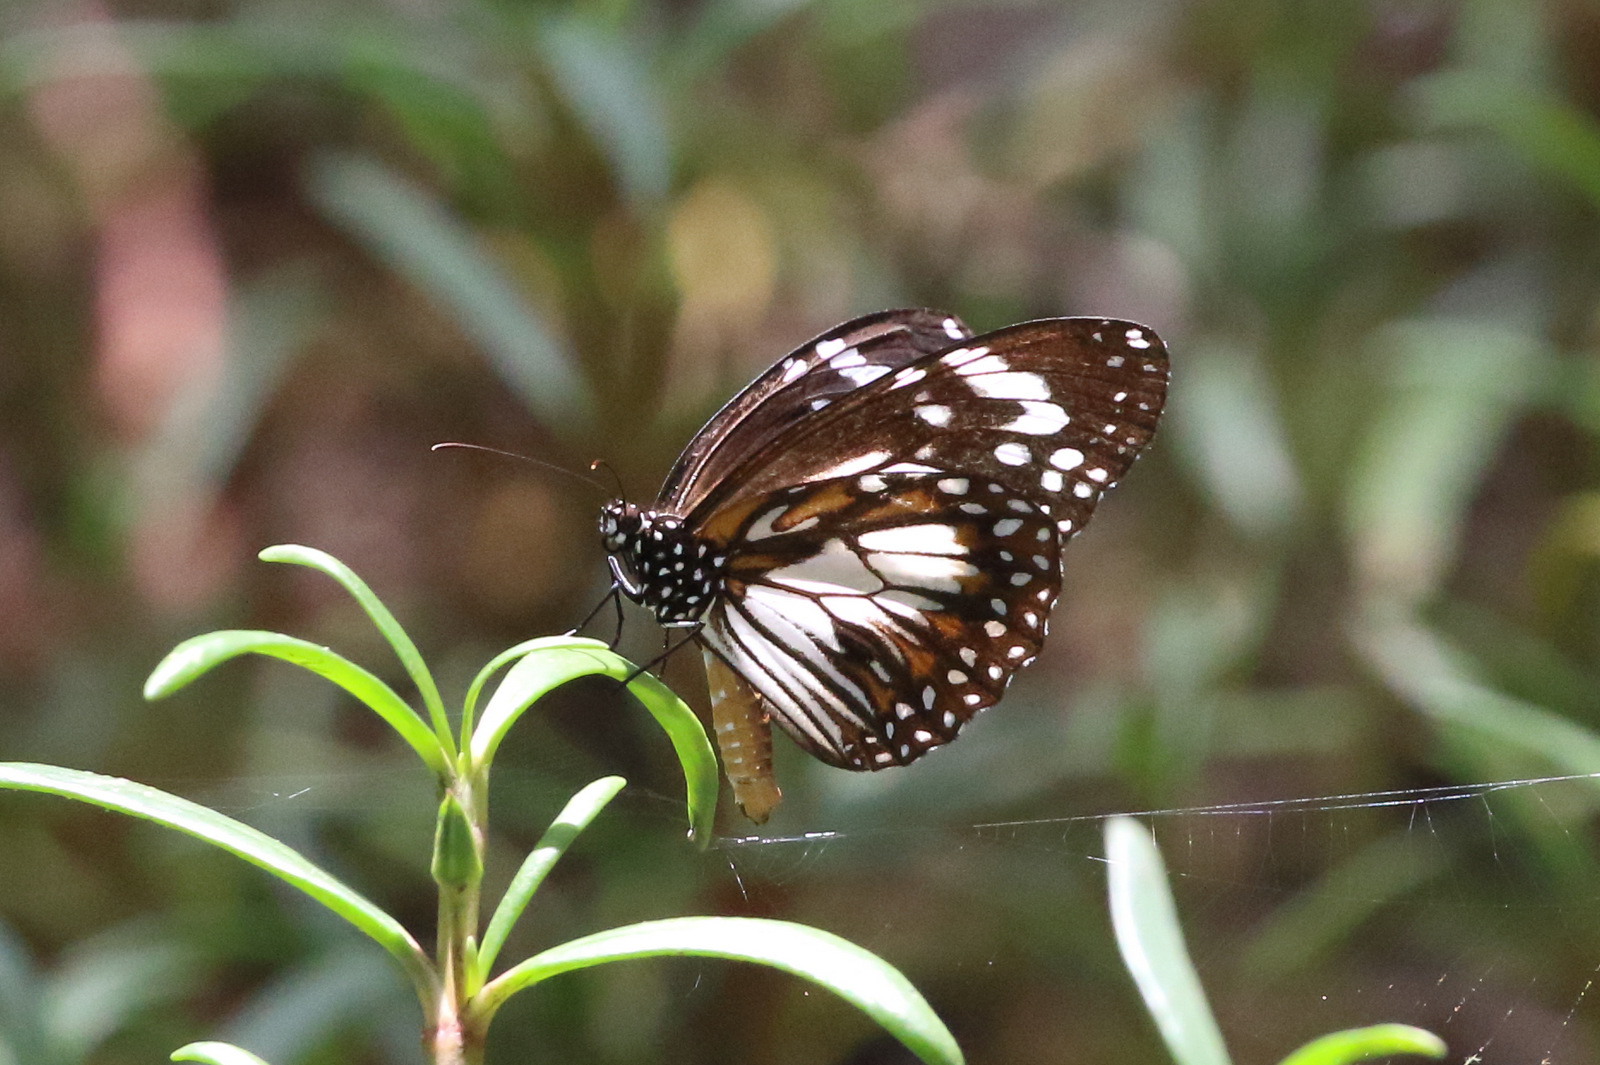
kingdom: Animalia
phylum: Arthropoda
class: Insecta
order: Lepidoptera
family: Nymphalidae
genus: Danaus
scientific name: Danaus affinis
